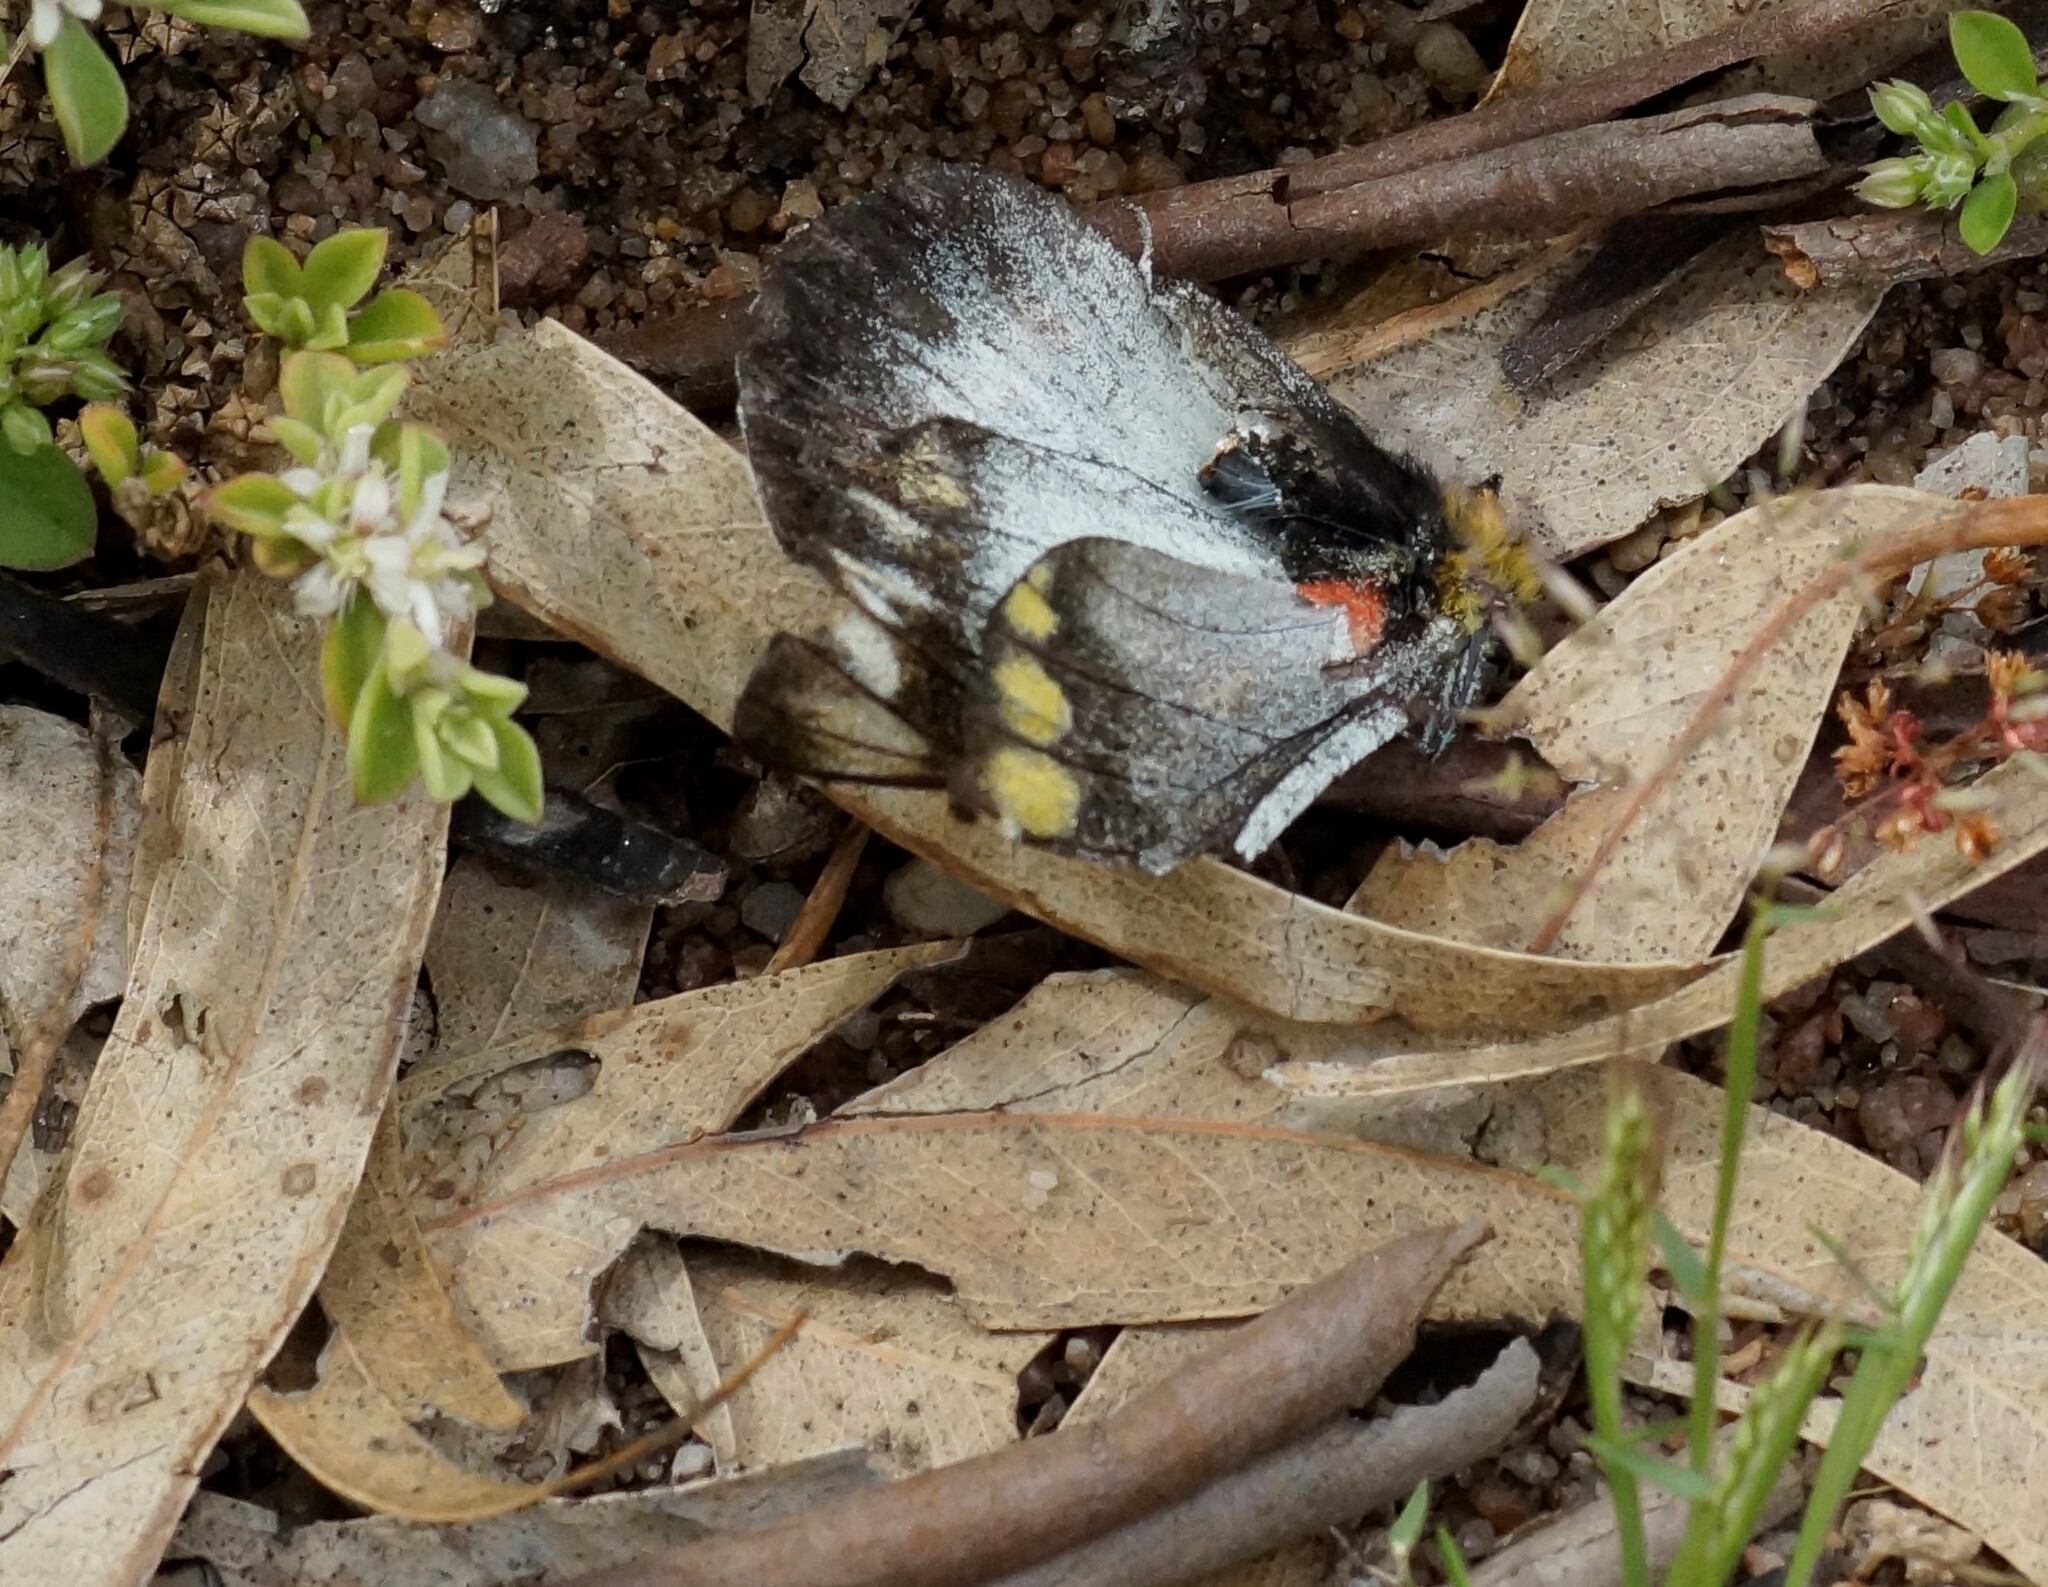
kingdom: Animalia
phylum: Arthropoda
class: Insecta
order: Lepidoptera
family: Pieridae
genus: Delias
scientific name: Delias harpalyce
